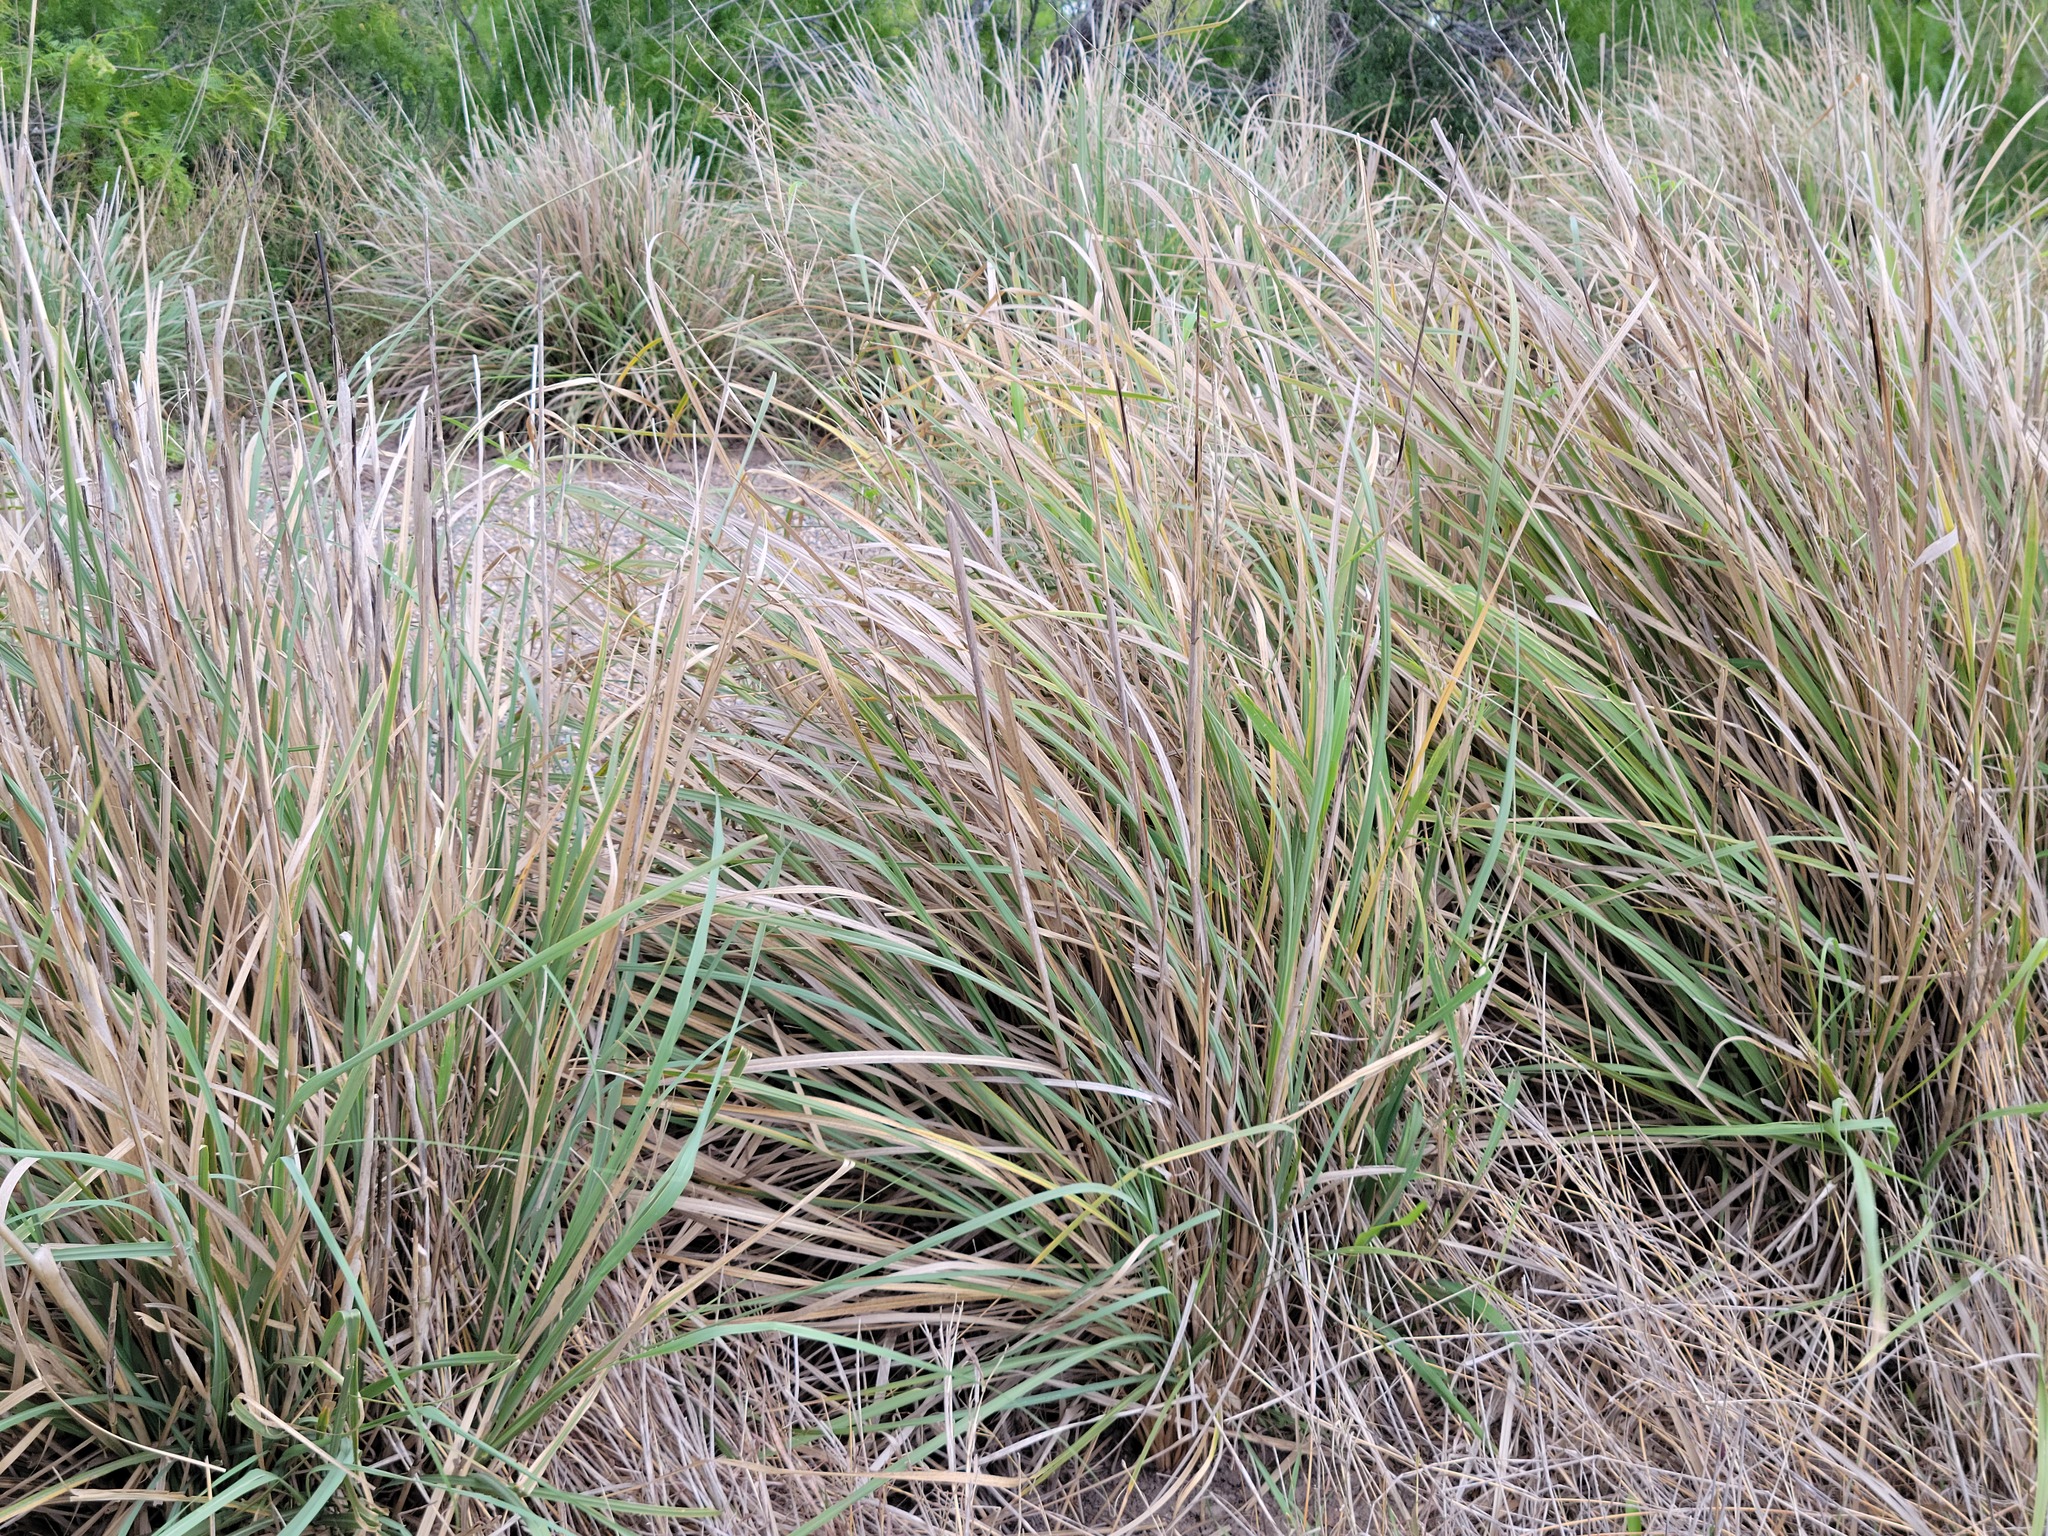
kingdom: Plantae
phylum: Tracheophyta
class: Liliopsida
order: Poales
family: Poaceae
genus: Sporobolus
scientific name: Sporobolus wrightii
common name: Big alkali sacaton
